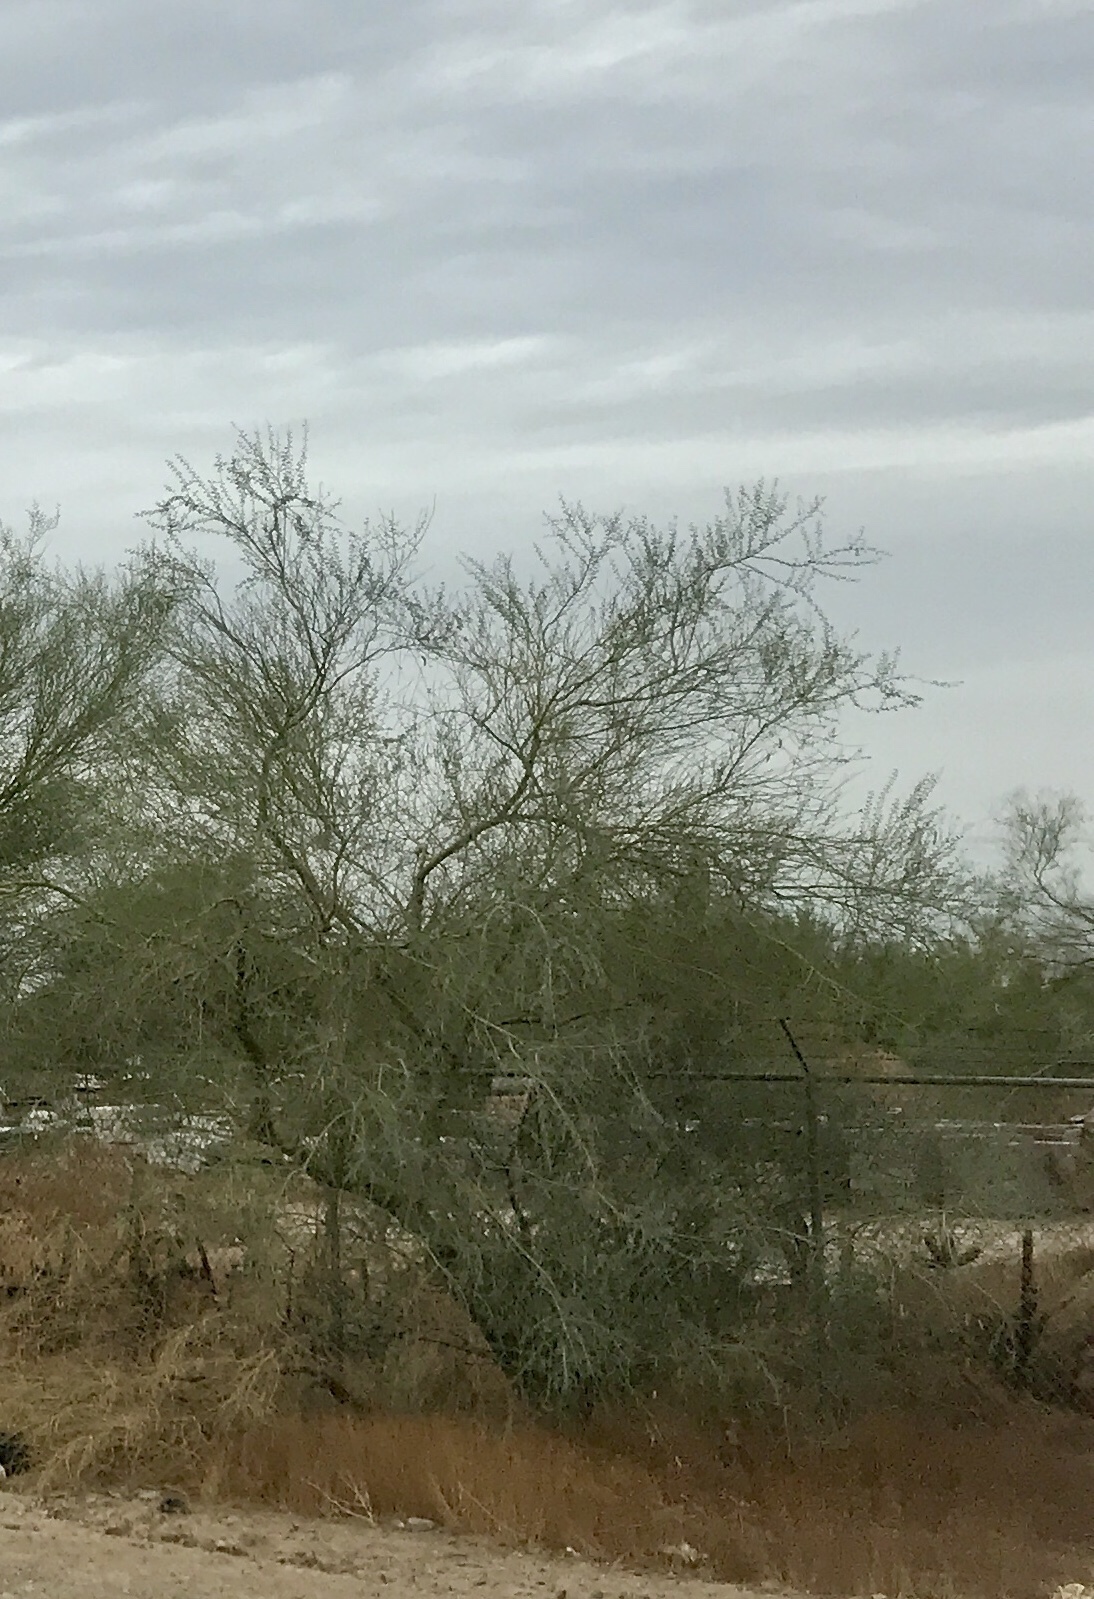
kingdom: Plantae
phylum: Tracheophyta
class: Magnoliopsida
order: Fabales
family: Fabaceae
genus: Parkinsonia
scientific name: Parkinsonia florida
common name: Blue paloverde
